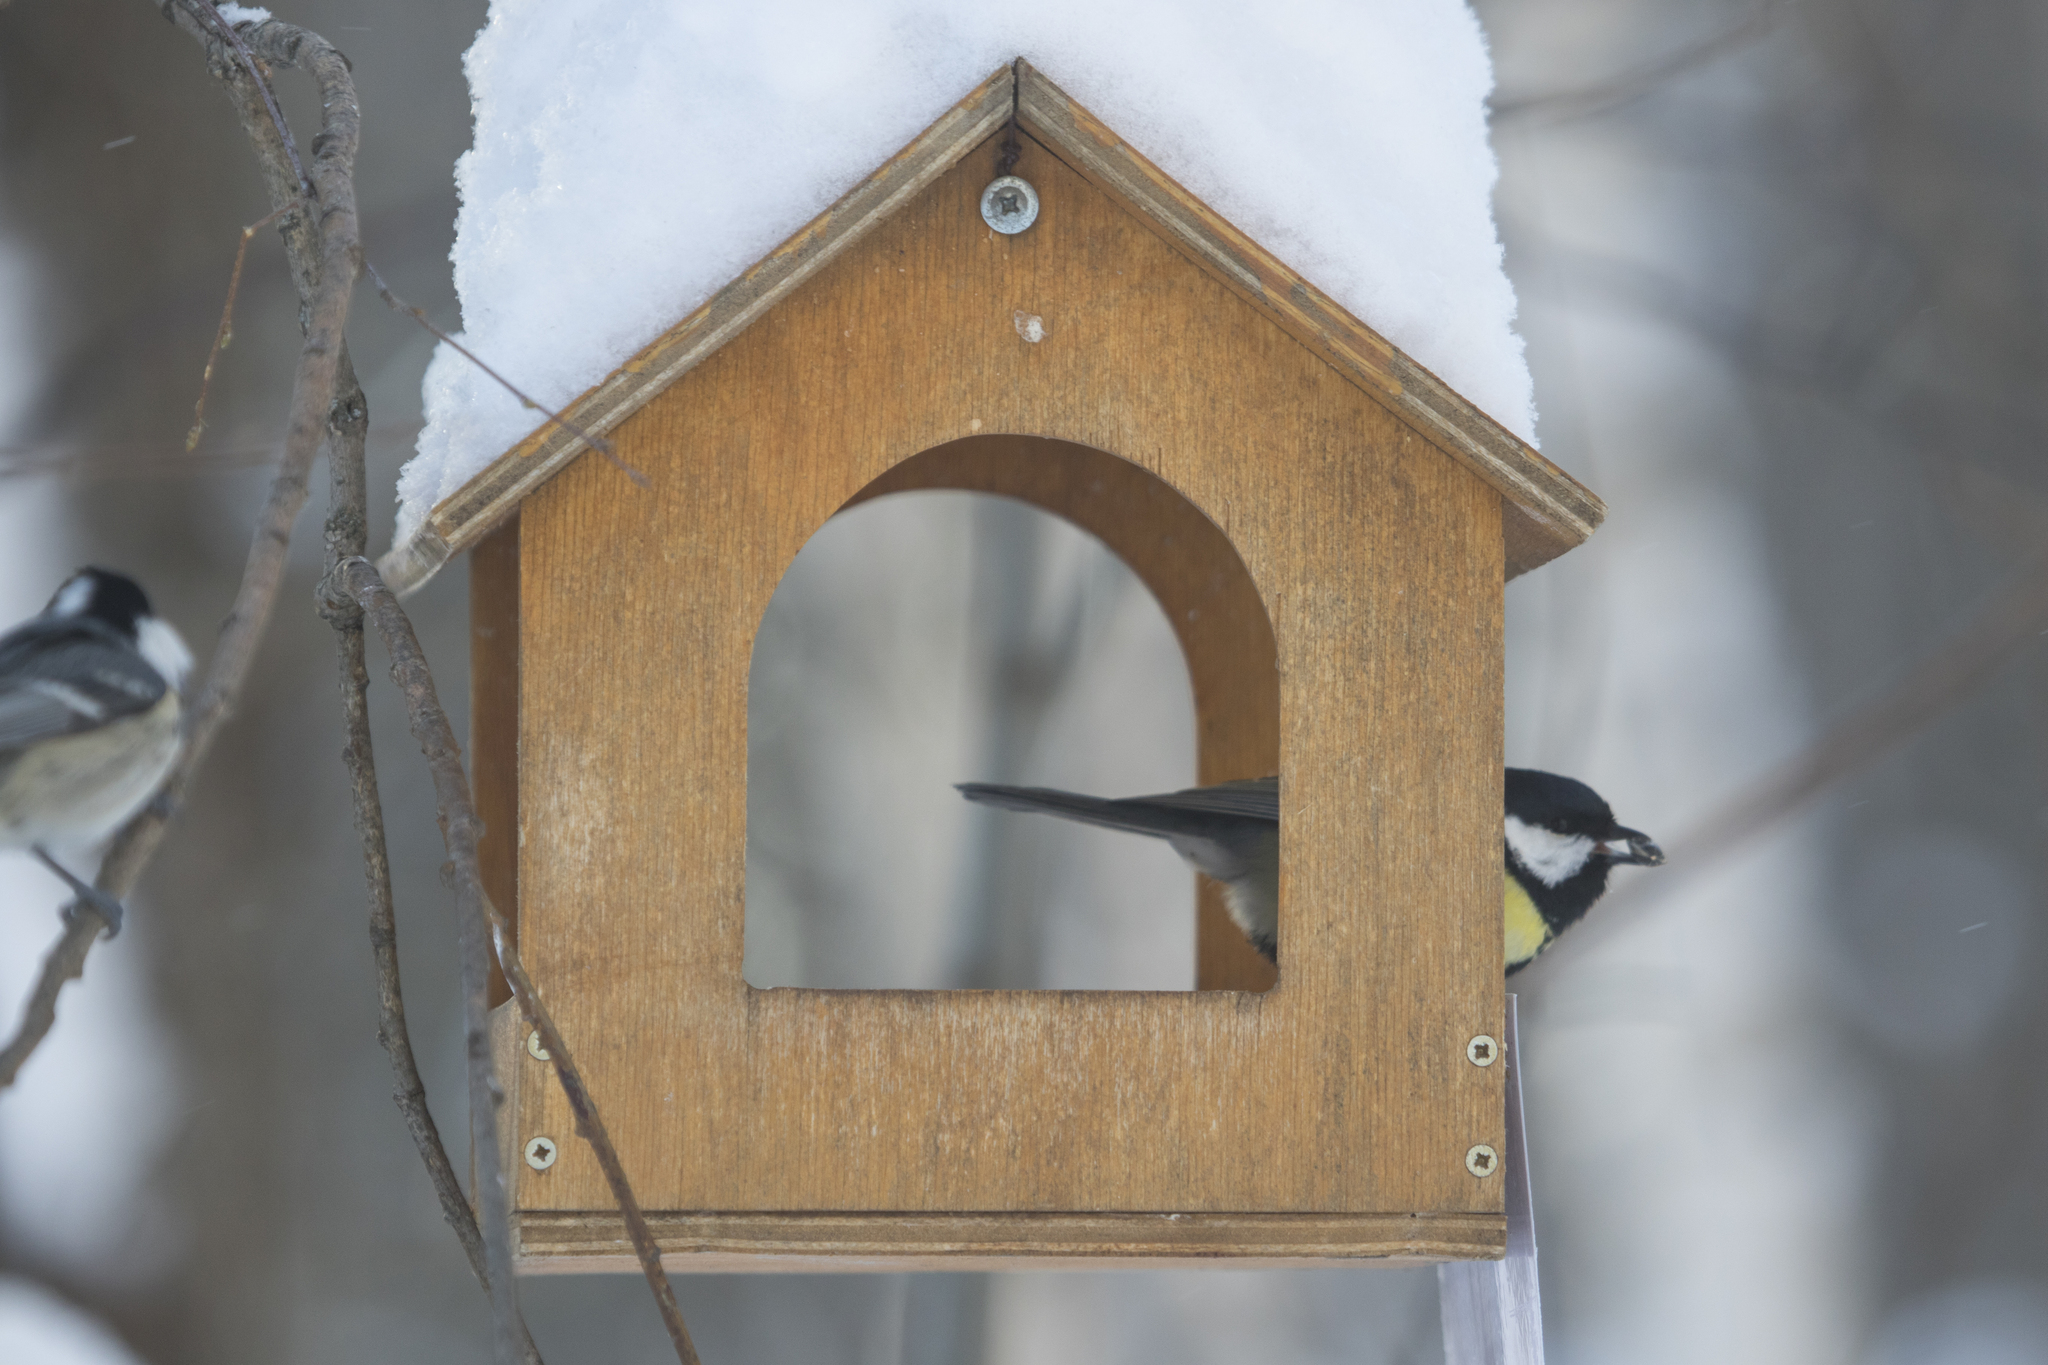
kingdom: Animalia
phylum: Chordata
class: Aves
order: Passeriformes
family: Paridae
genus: Parus
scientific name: Parus major
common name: Great tit
